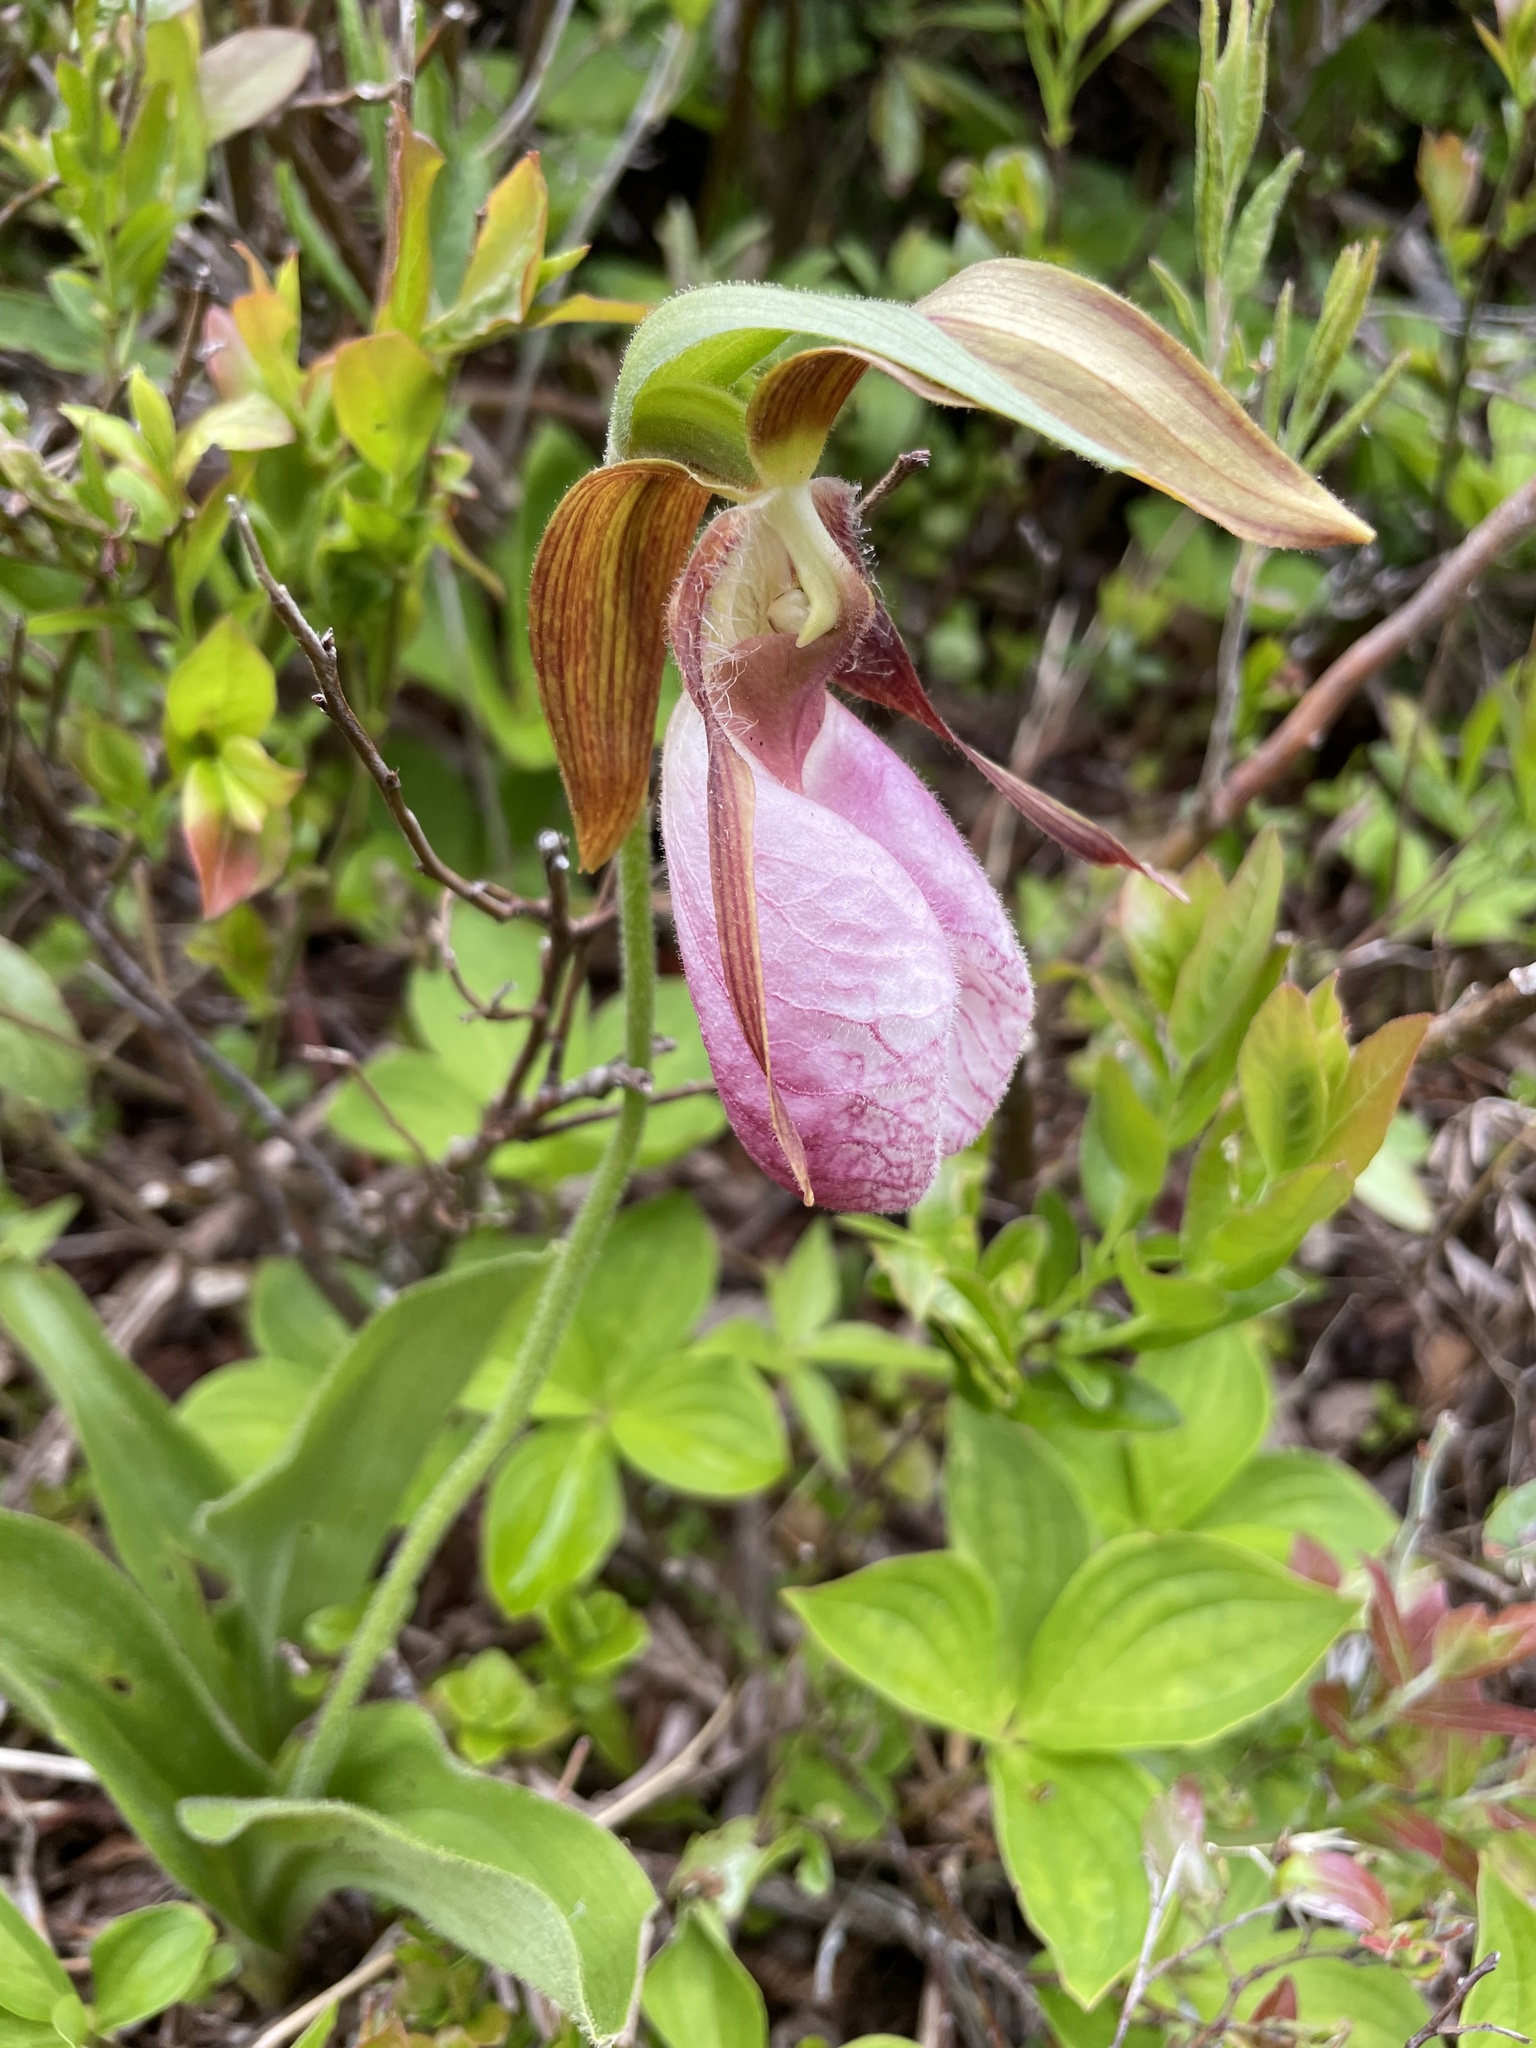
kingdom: Plantae
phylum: Tracheophyta
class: Liliopsida
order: Asparagales
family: Orchidaceae
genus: Cypripedium
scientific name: Cypripedium acaule
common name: Pink lady's-slipper
